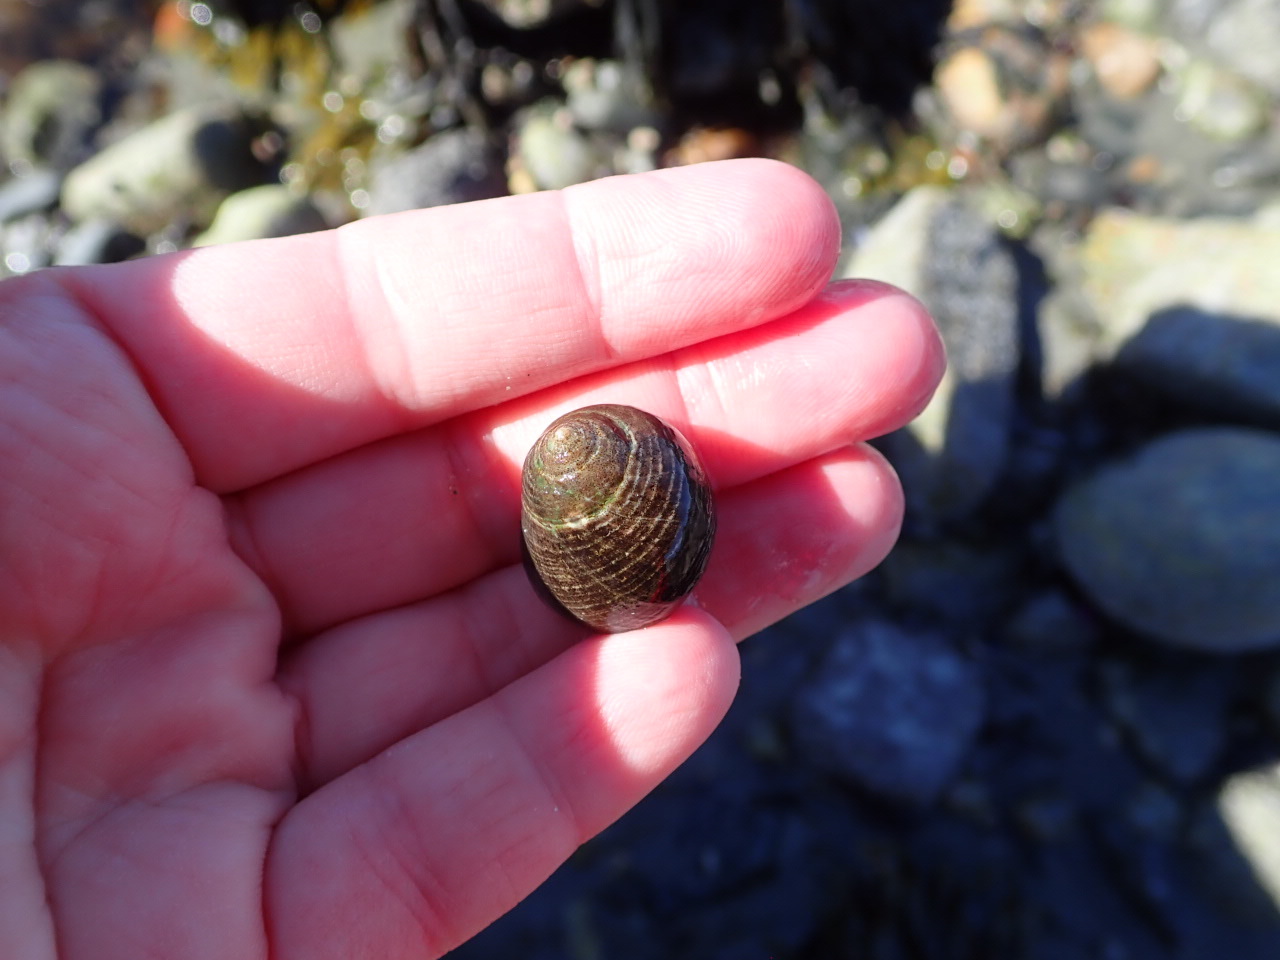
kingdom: Animalia
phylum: Mollusca
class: Gastropoda
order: Littorinimorpha
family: Littorinidae
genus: Littorina
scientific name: Littorina littorea
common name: Common periwinkle
